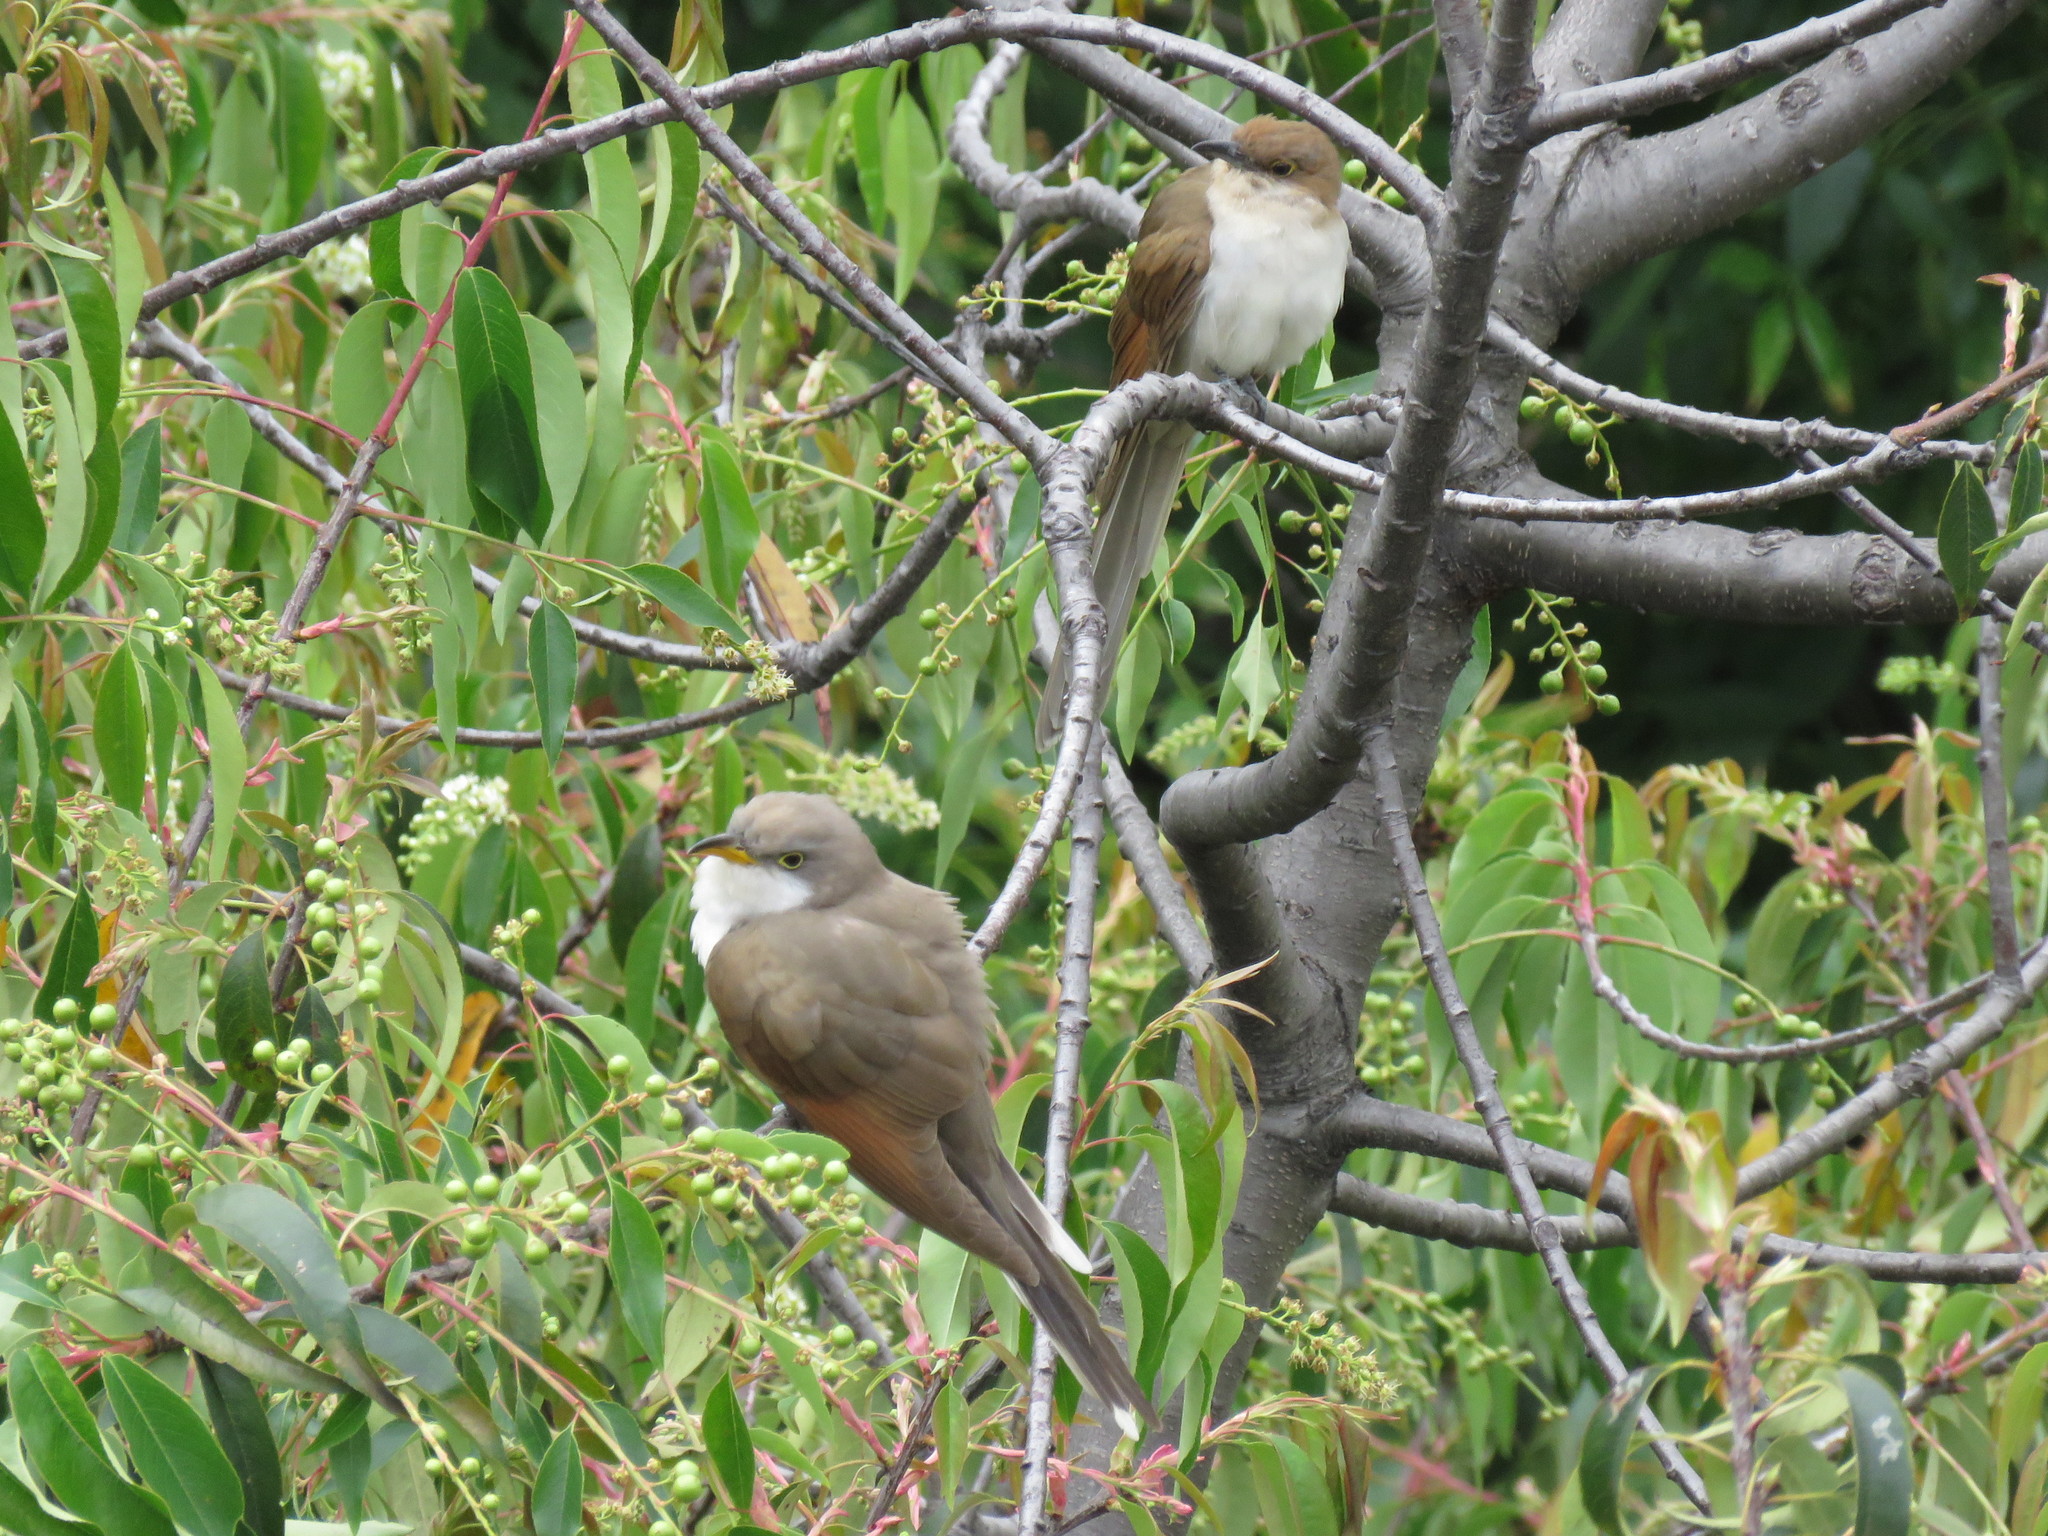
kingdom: Animalia
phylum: Chordata
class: Aves
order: Cuculiformes
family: Cuculidae
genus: Coccyzus
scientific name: Coccyzus erythropthalmus
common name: Black-billed cuckoo
